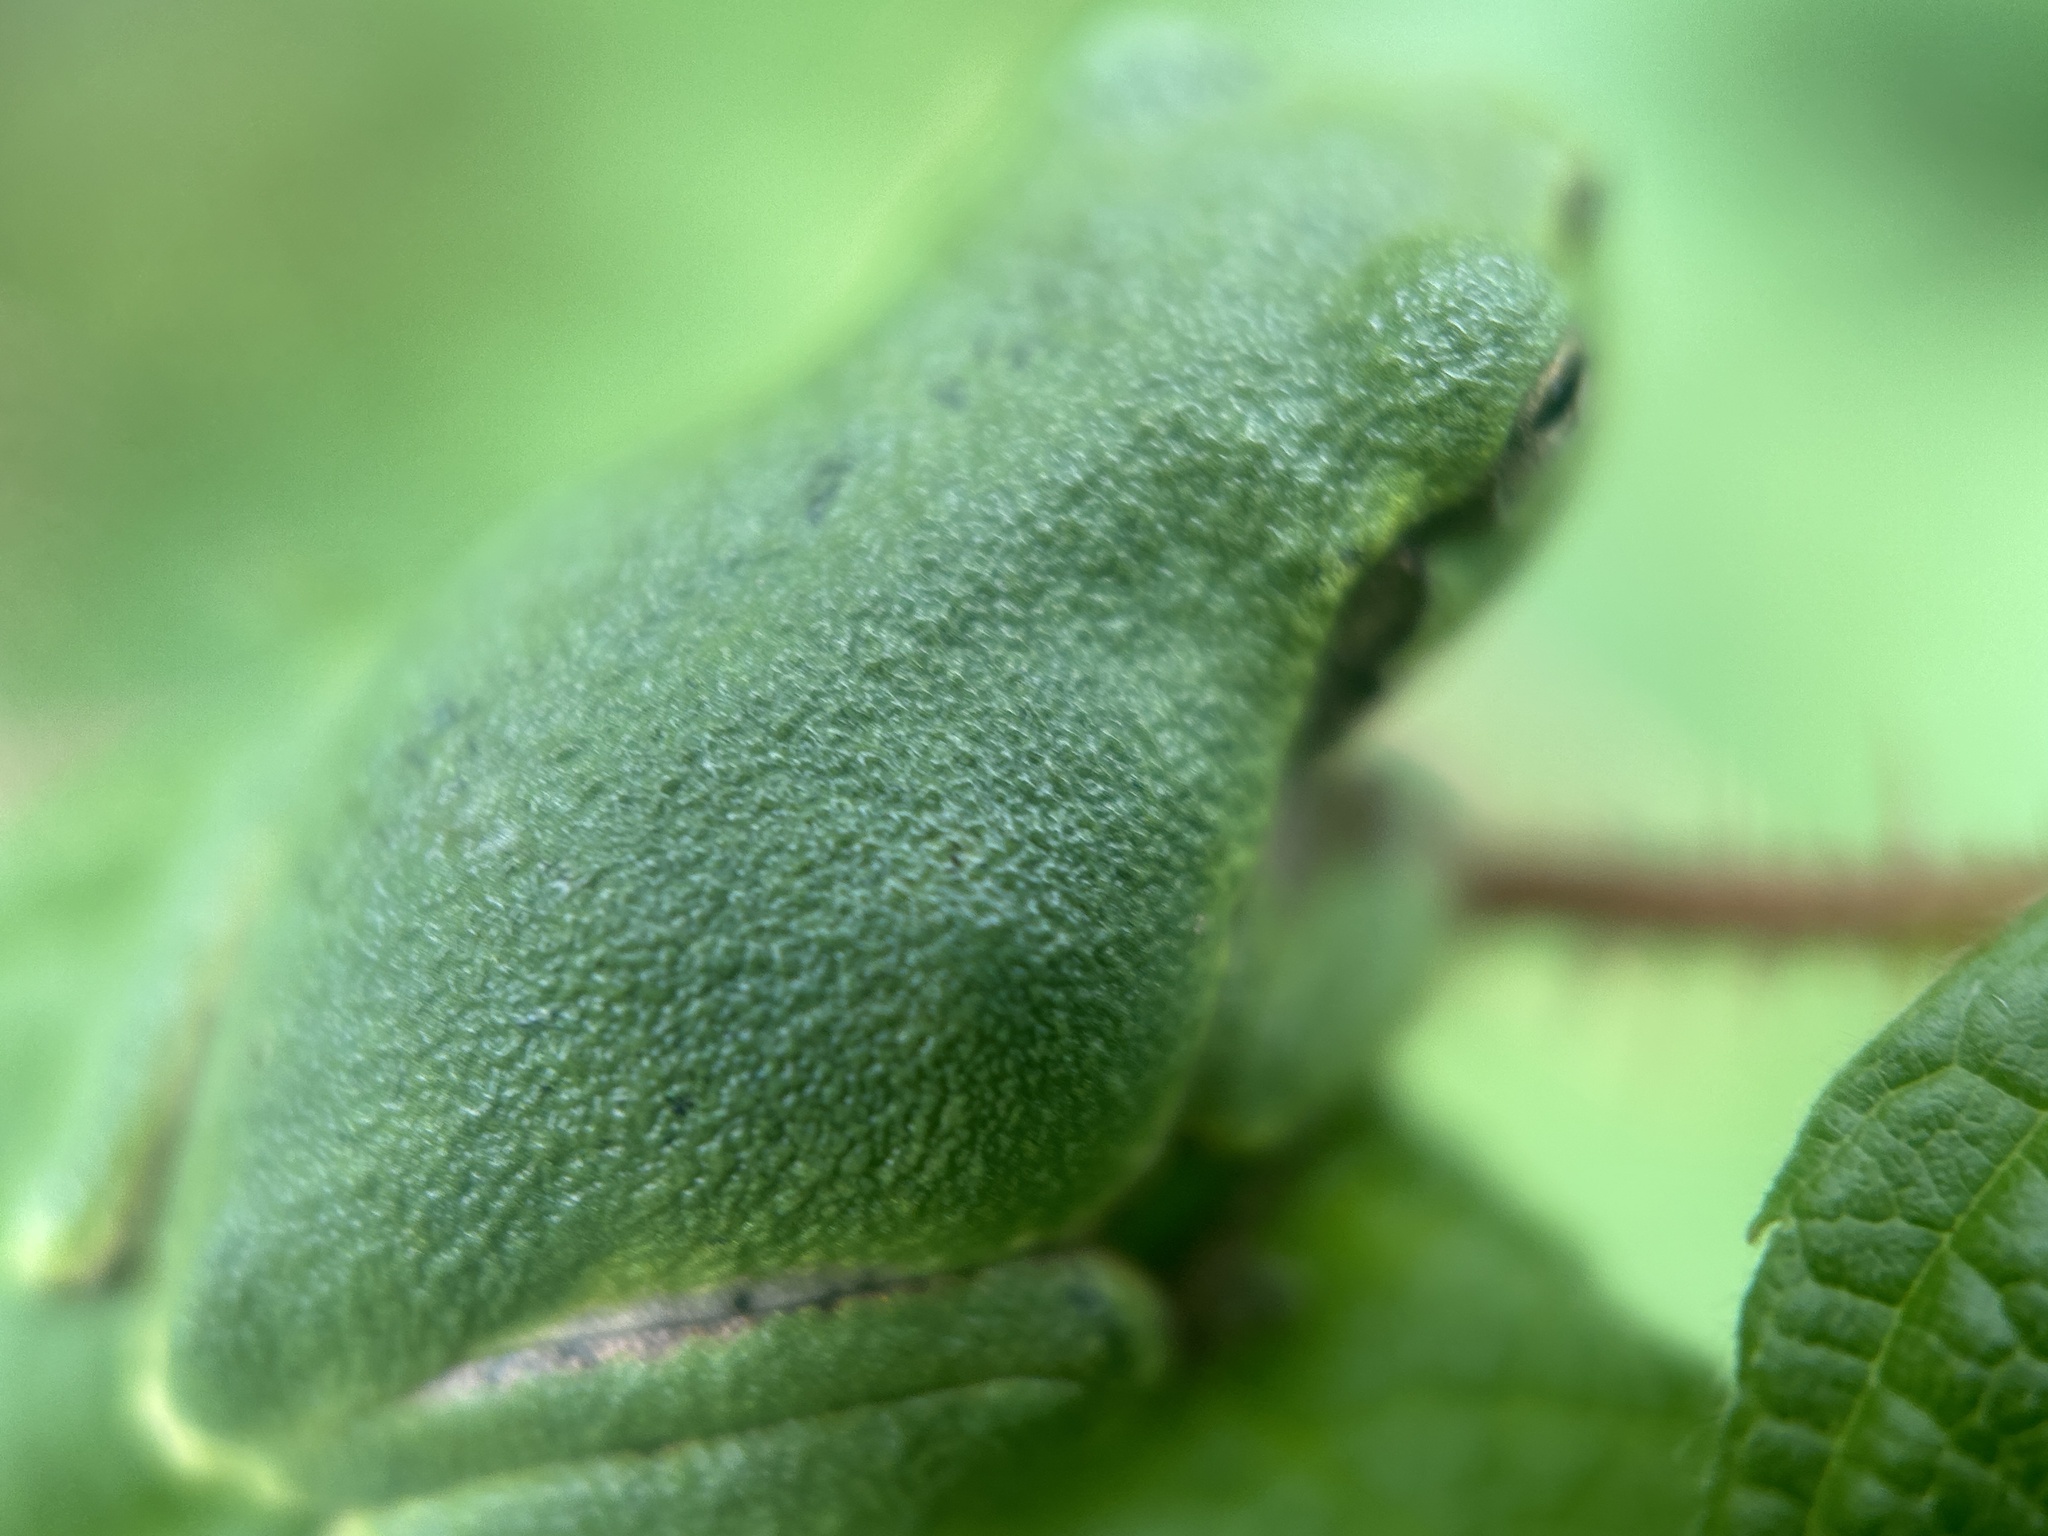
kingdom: Animalia
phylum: Chordata
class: Amphibia
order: Anura
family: Hylidae
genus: Hyla
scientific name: Hyla
